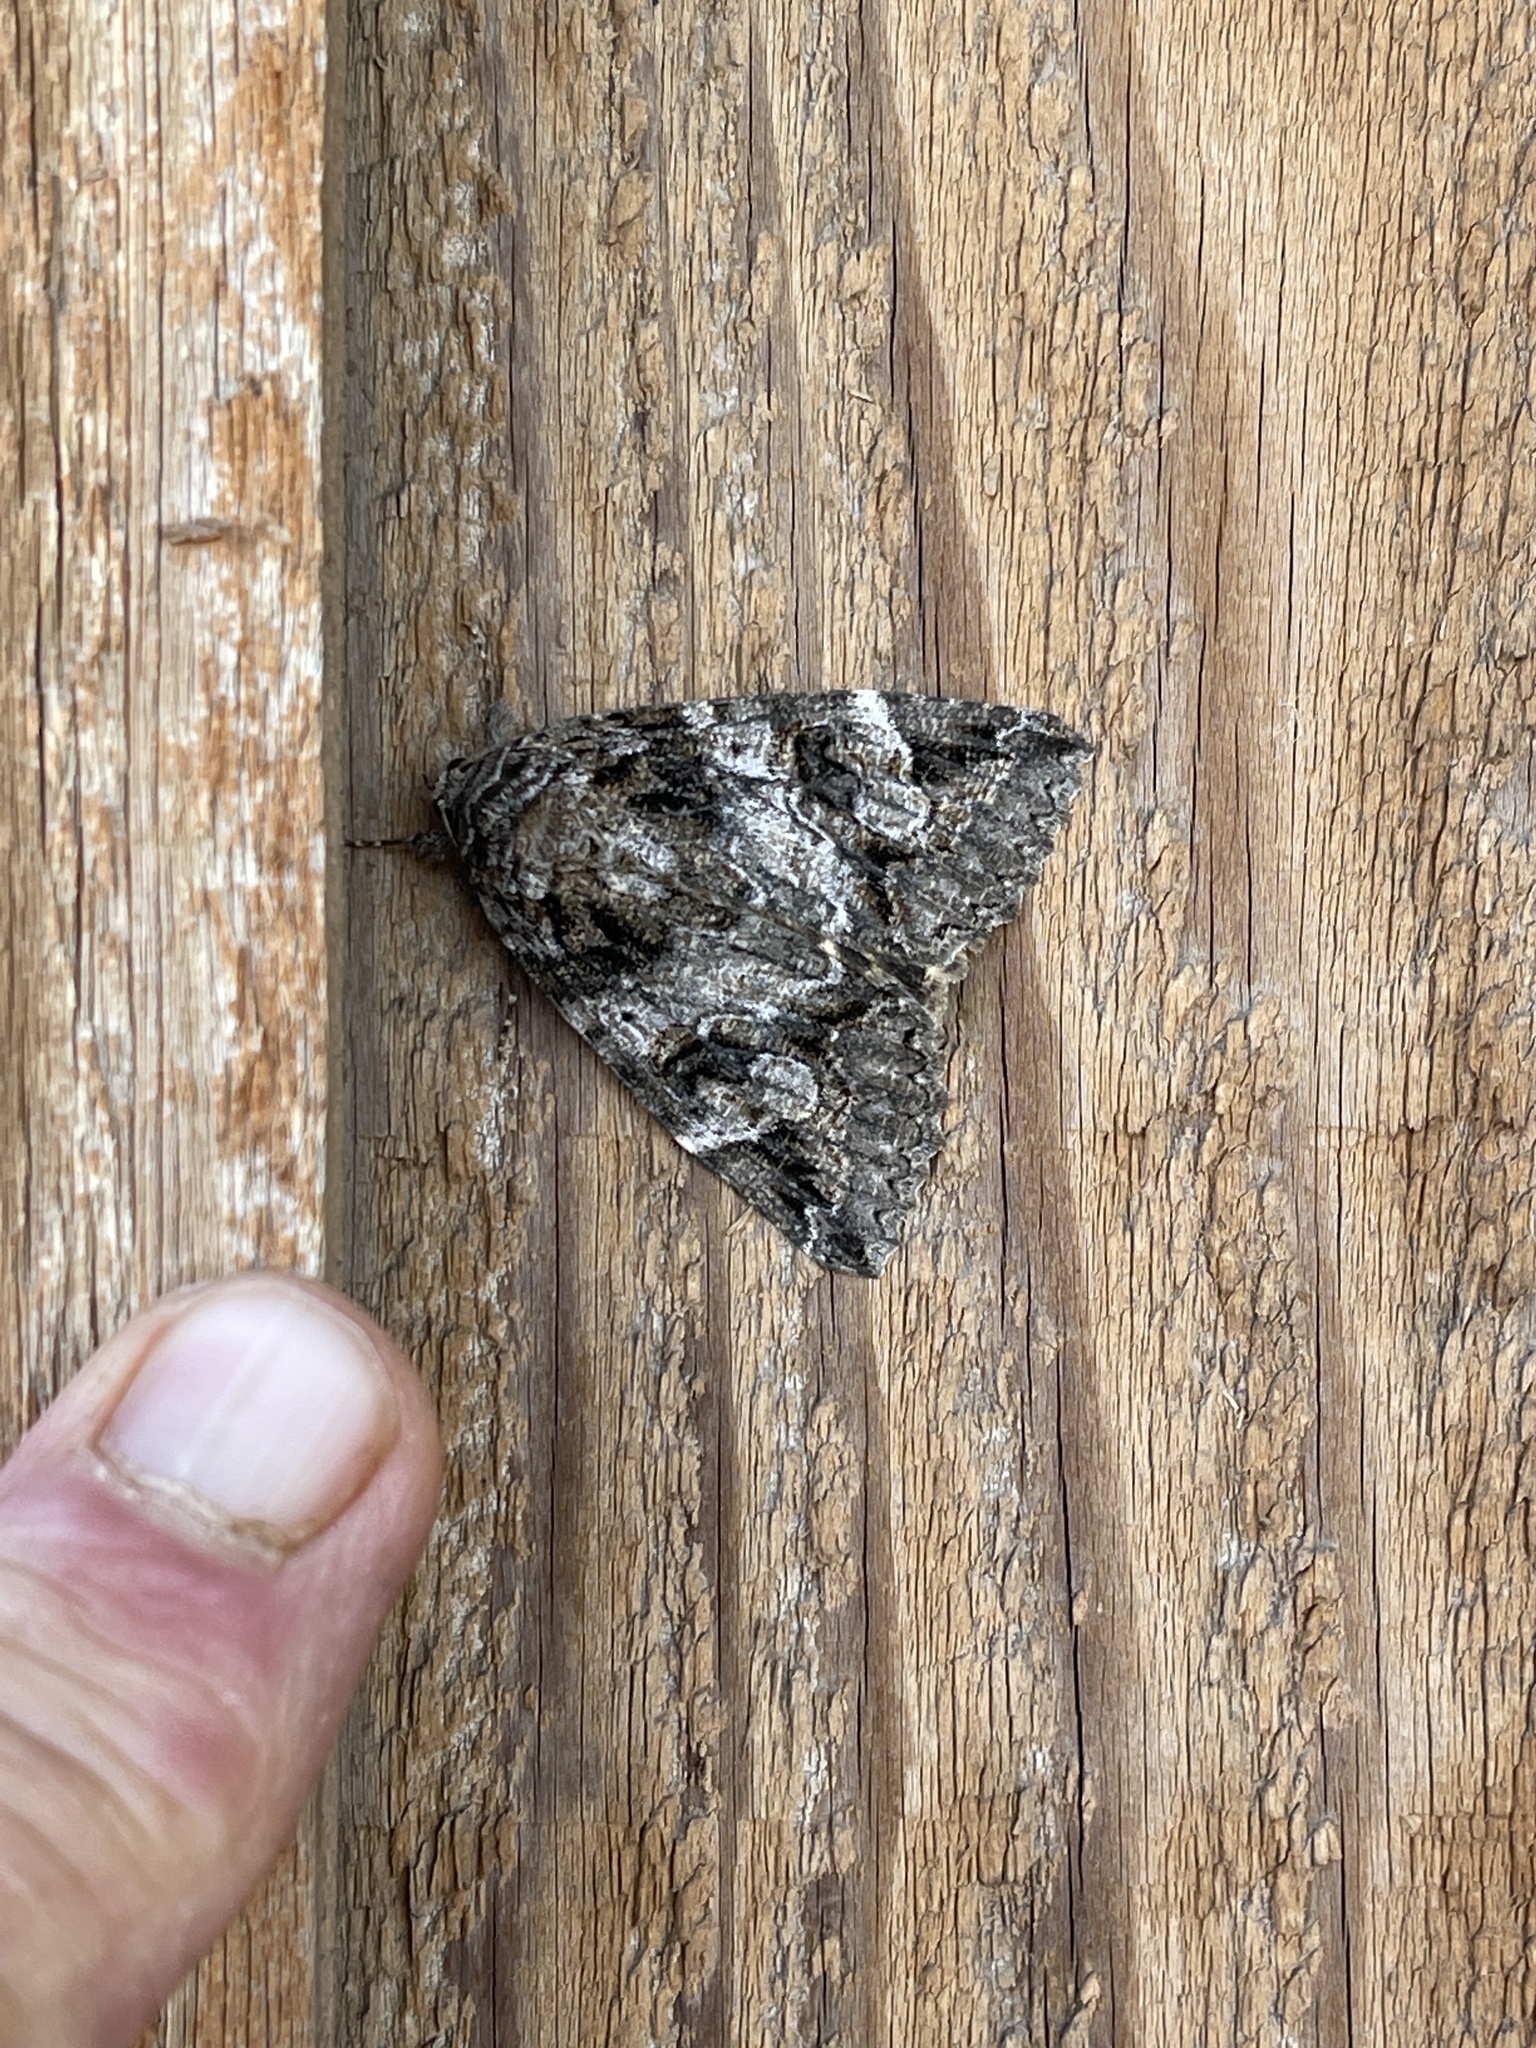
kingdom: Animalia
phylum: Arthropoda
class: Insecta
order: Lepidoptera
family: Erebidae
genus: Euparthenos
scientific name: Euparthenos nubilis
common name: Locust underwing
